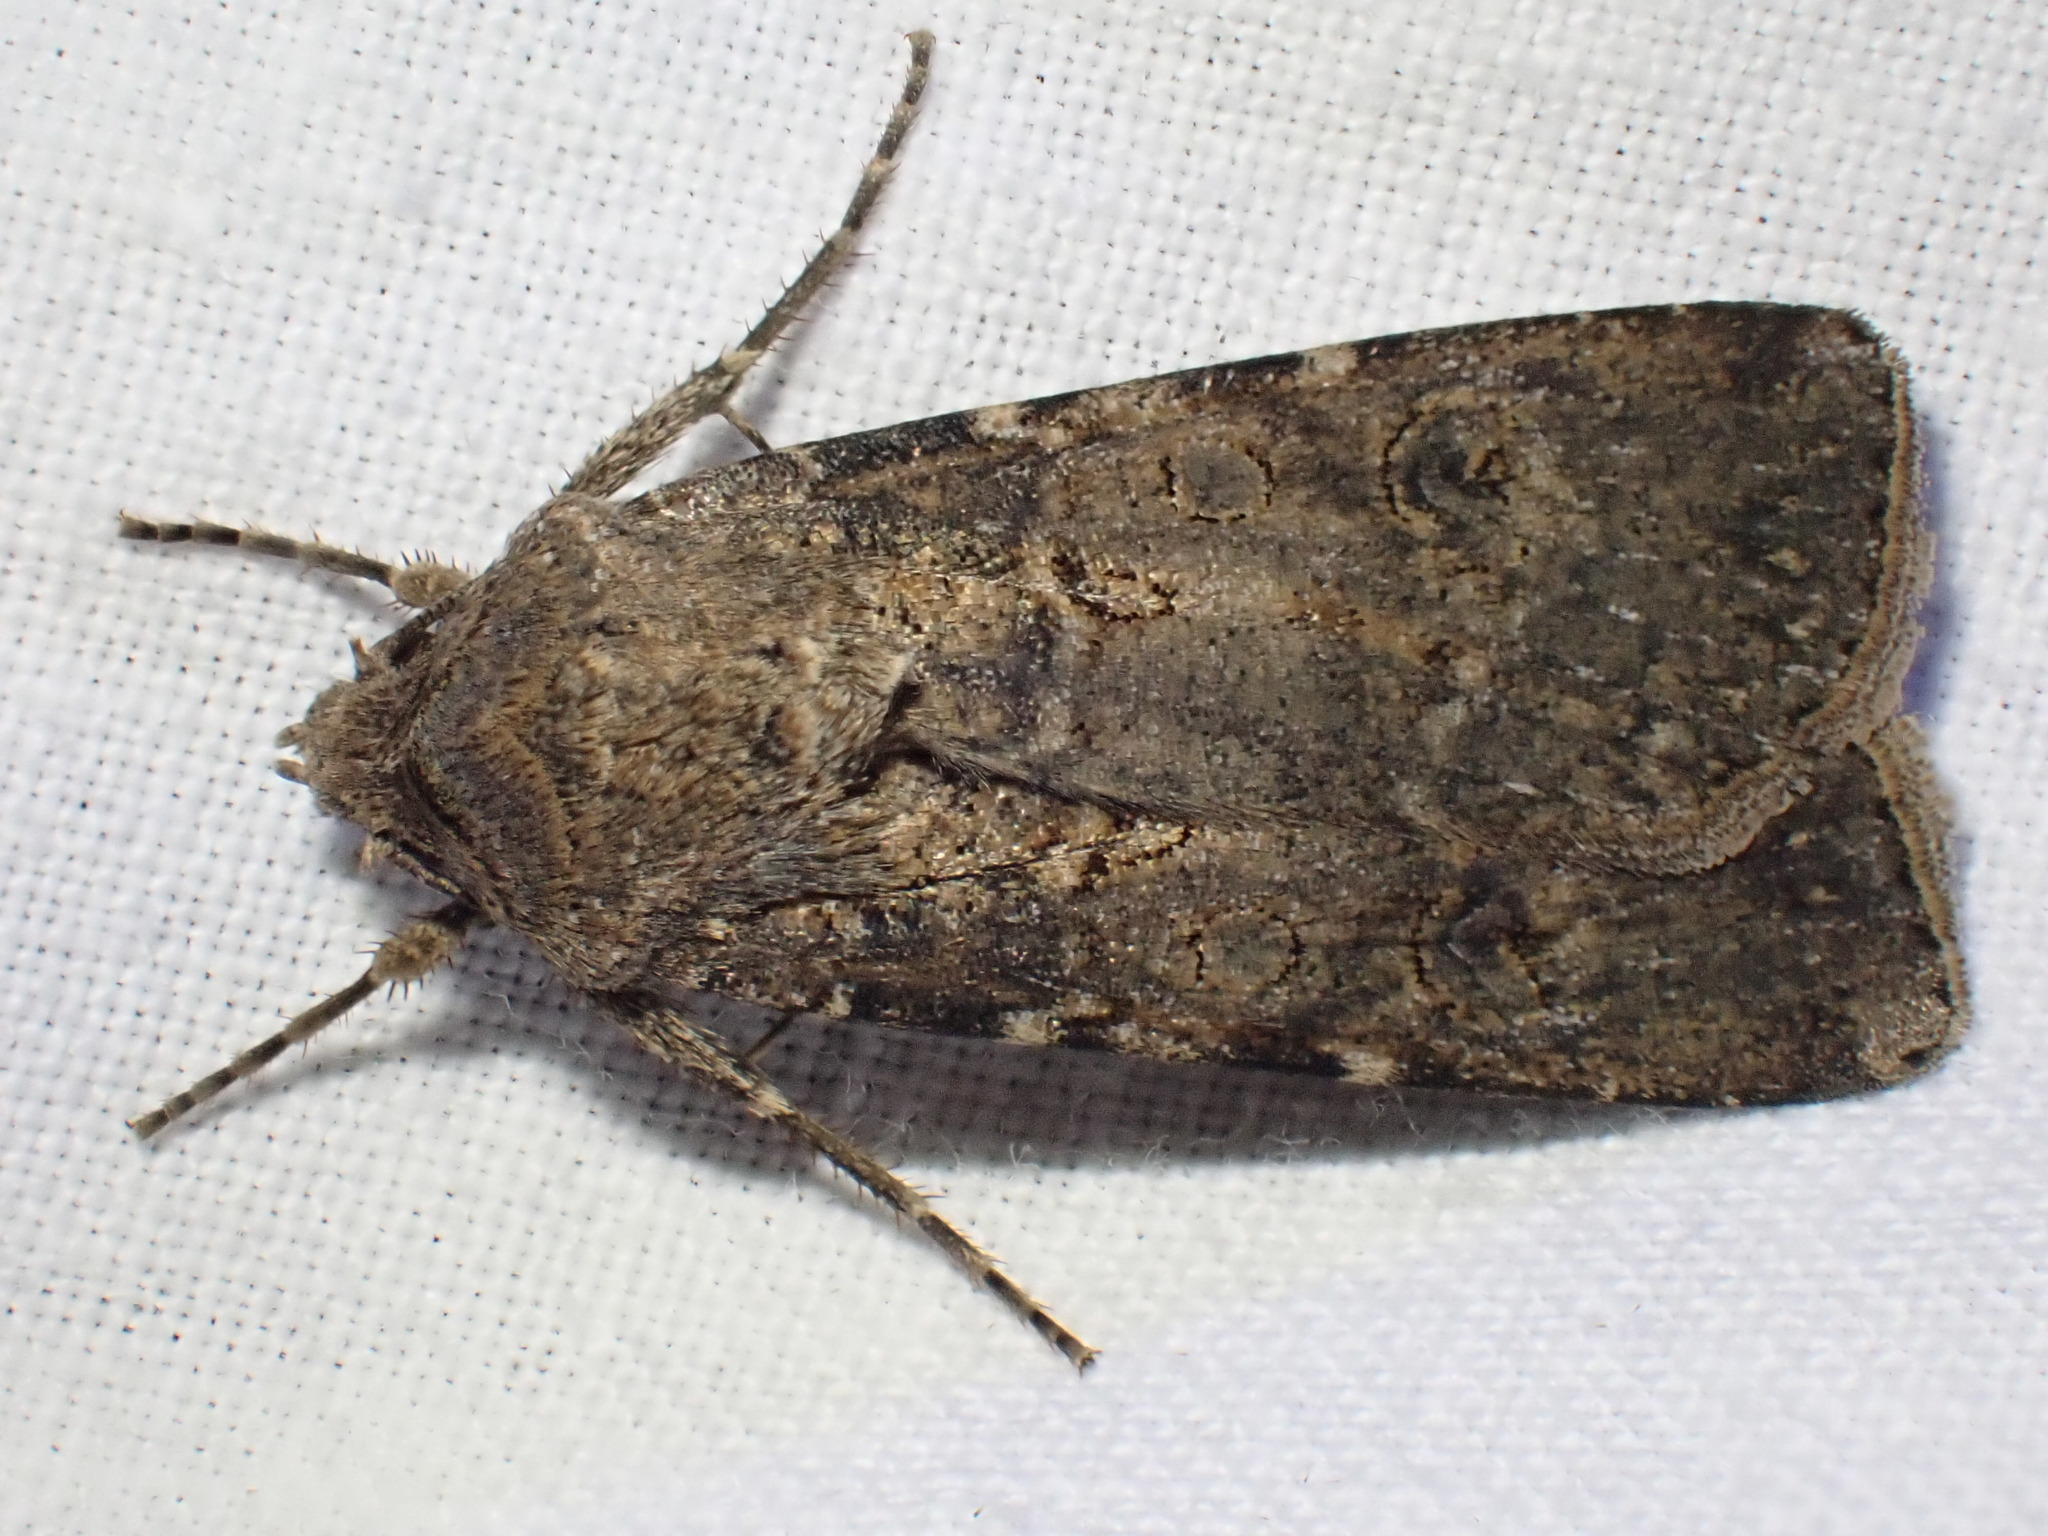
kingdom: Animalia
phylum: Arthropoda
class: Insecta
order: Lepidoptera
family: Noctuidae
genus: Agrotis
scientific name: Agrotis segetum
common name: Turnip moth
